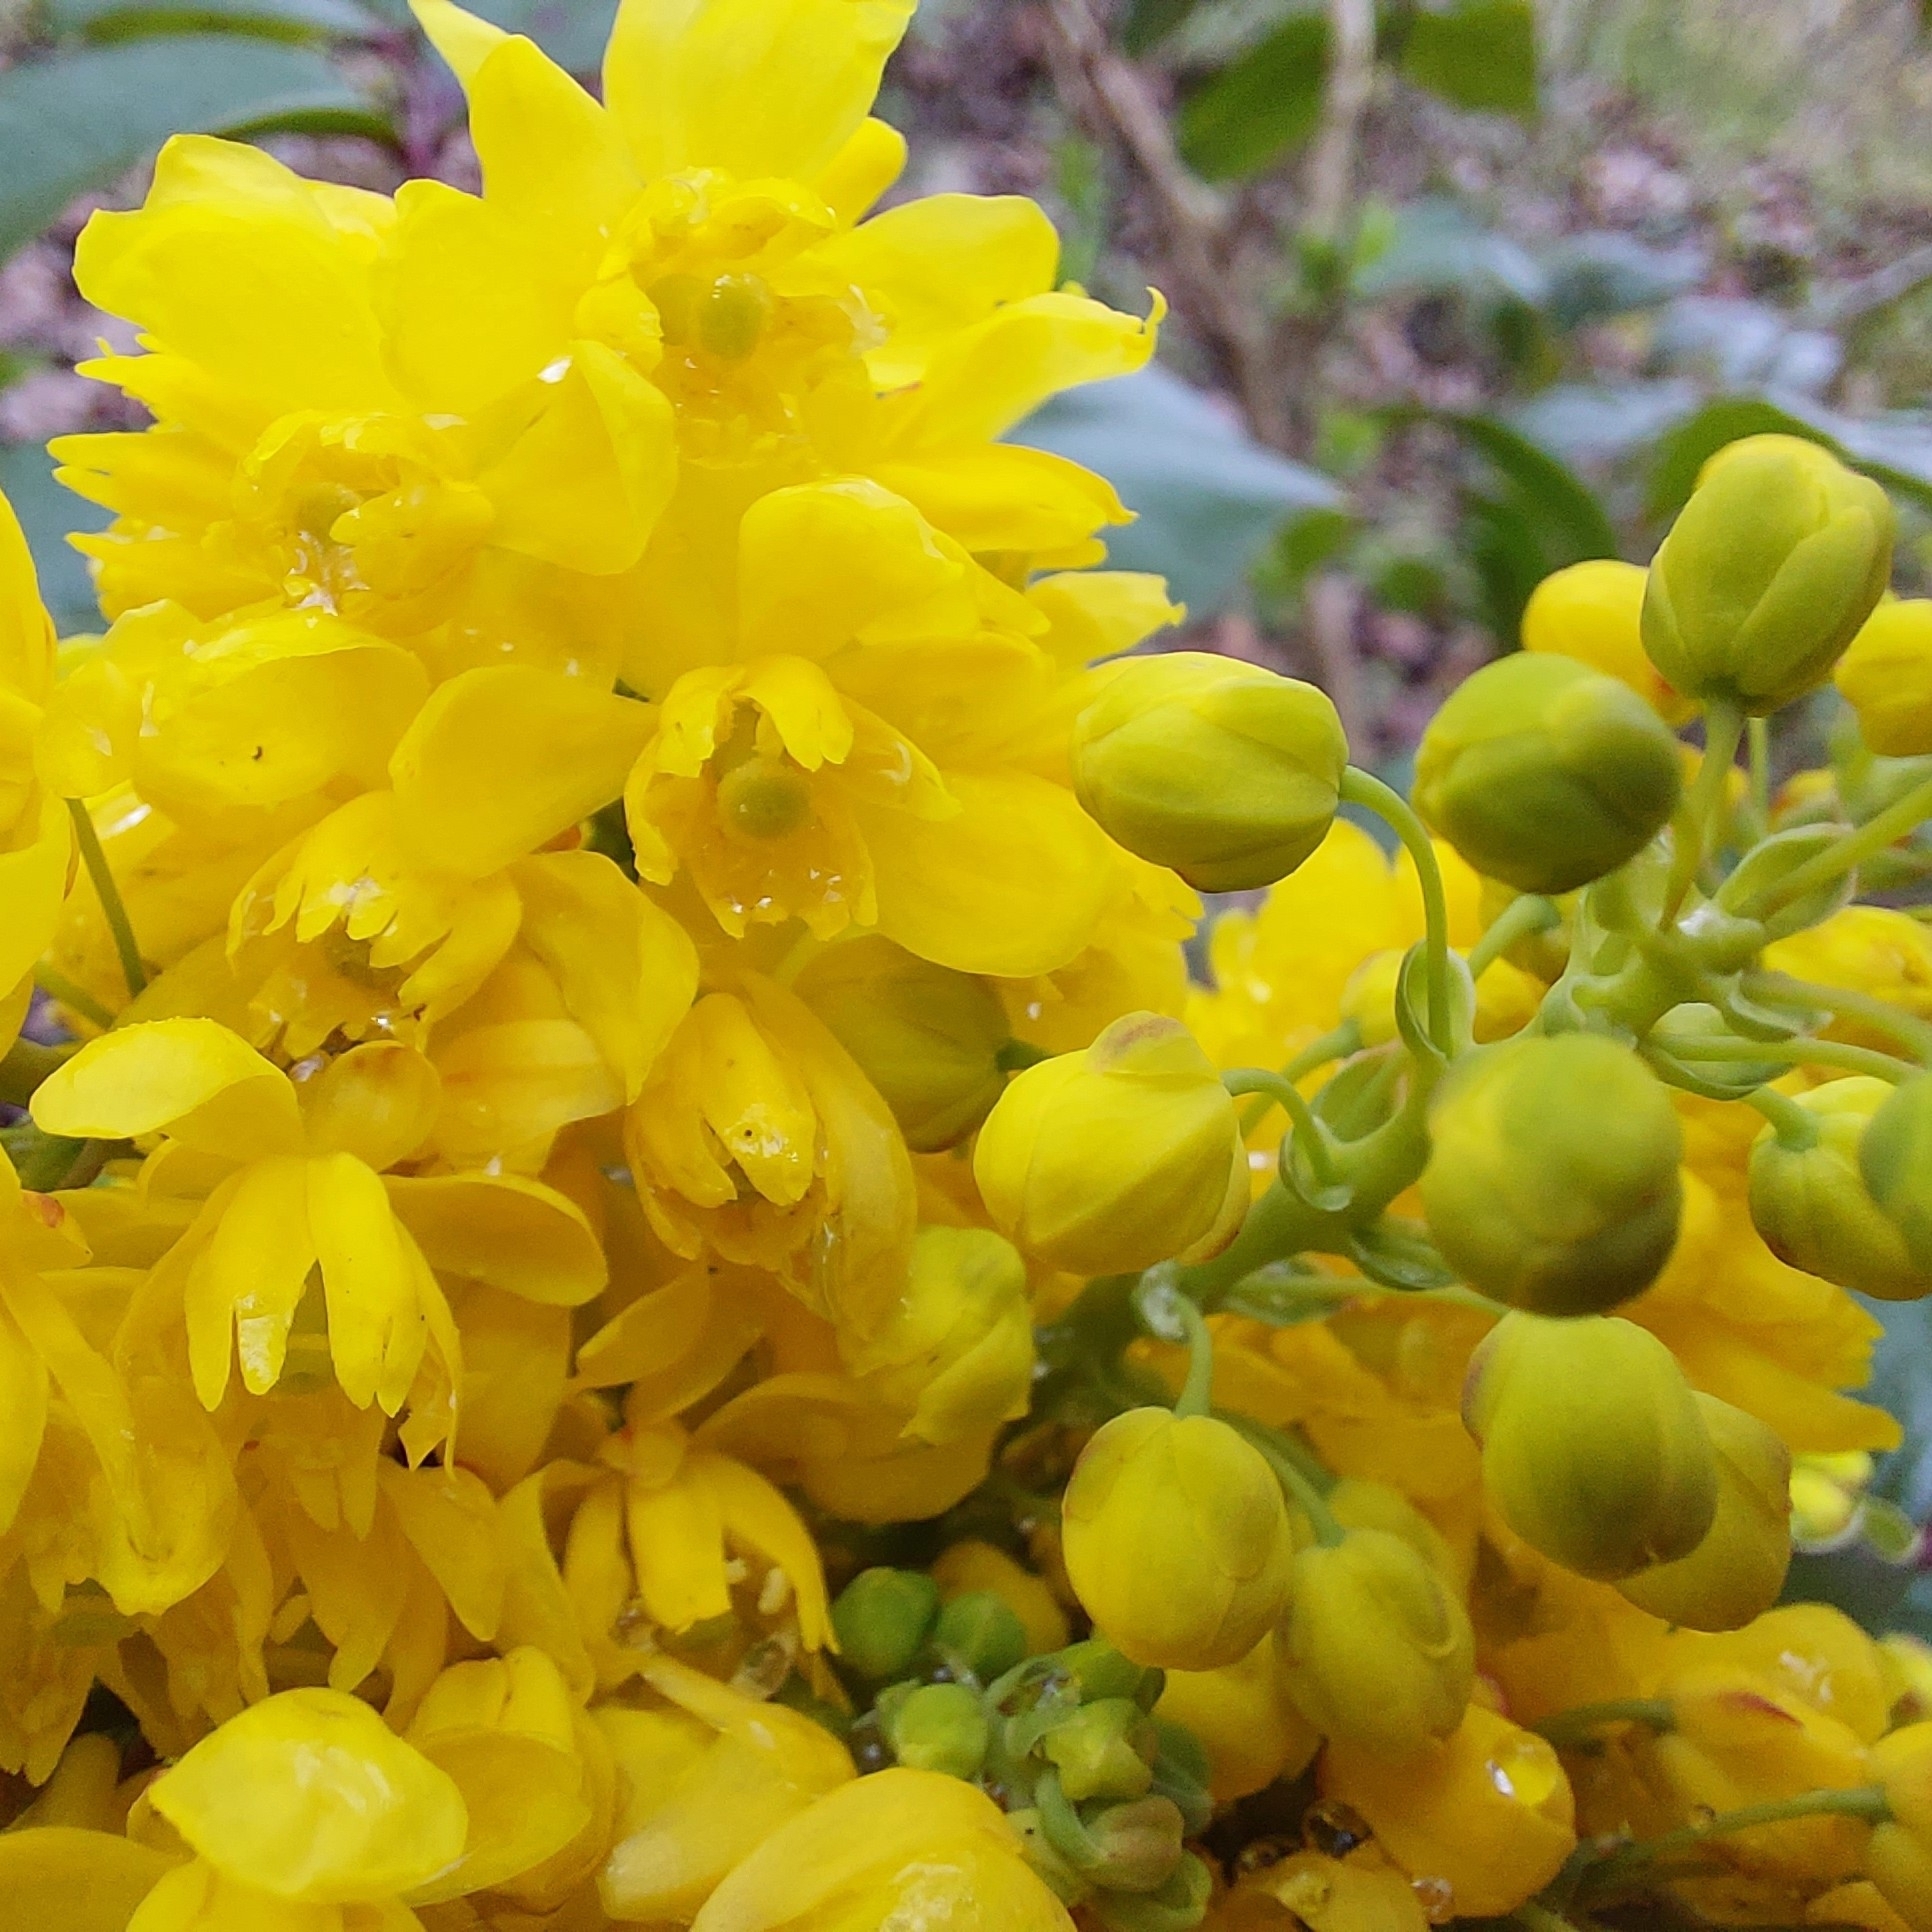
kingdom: Plantae
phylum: Tracheophyta
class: Magnoliopsida
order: Ranunculales
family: Berberidaceae
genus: Mahonia
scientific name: Mahonia aquifolium
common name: Oregon-grape
